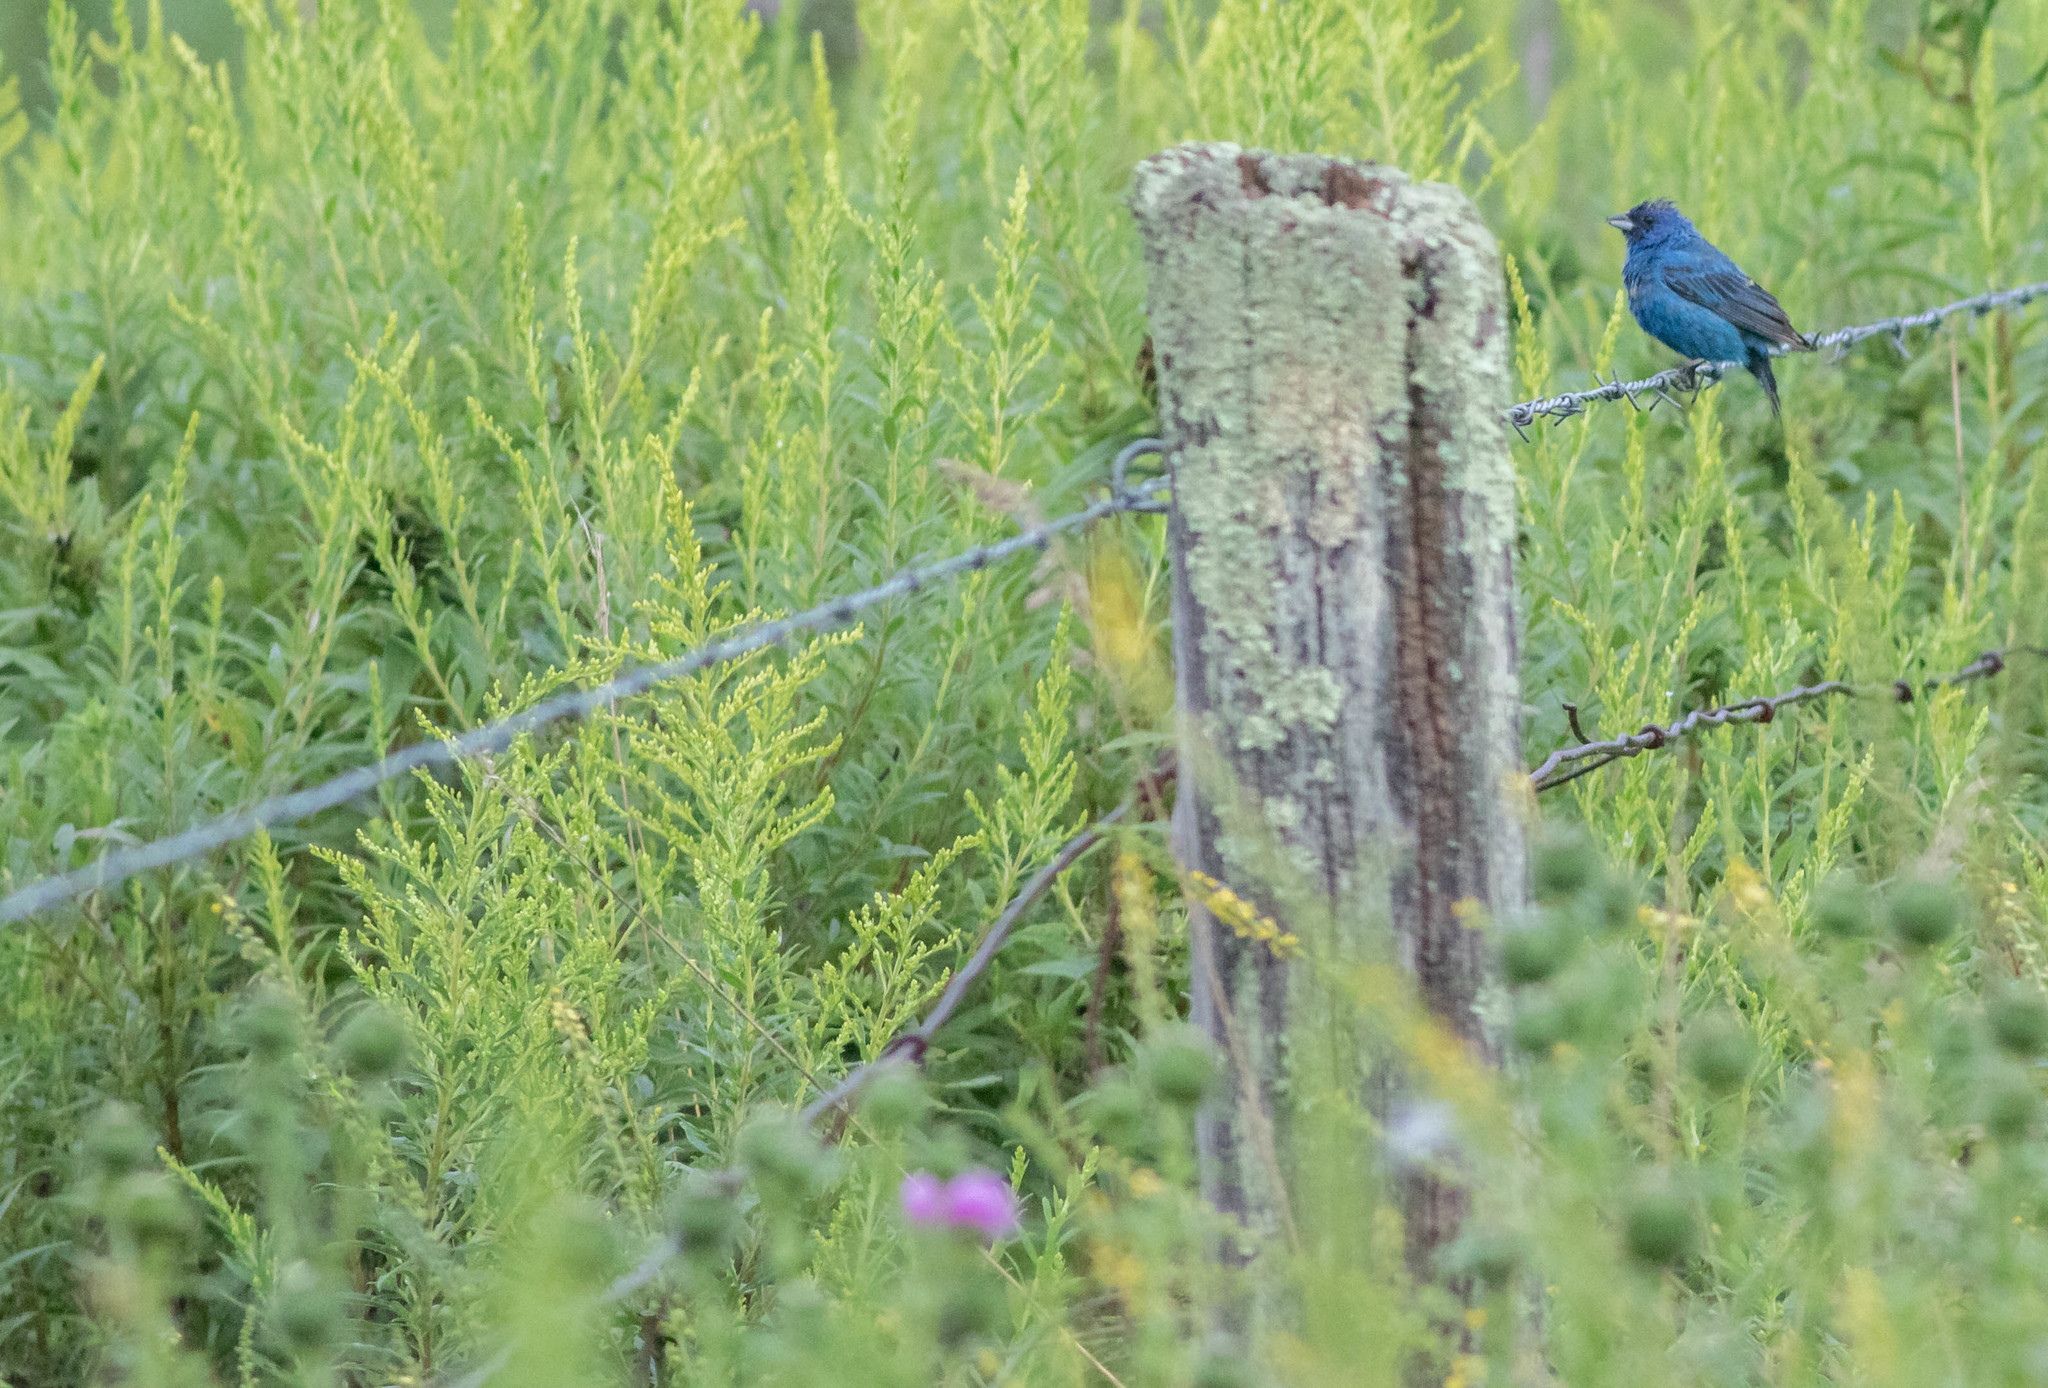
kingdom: Animalia
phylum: Chordata
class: Aves
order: Passeriformes
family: Cardinalidae
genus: Passerina
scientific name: Passerina cyanea
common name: Indigo bunting
